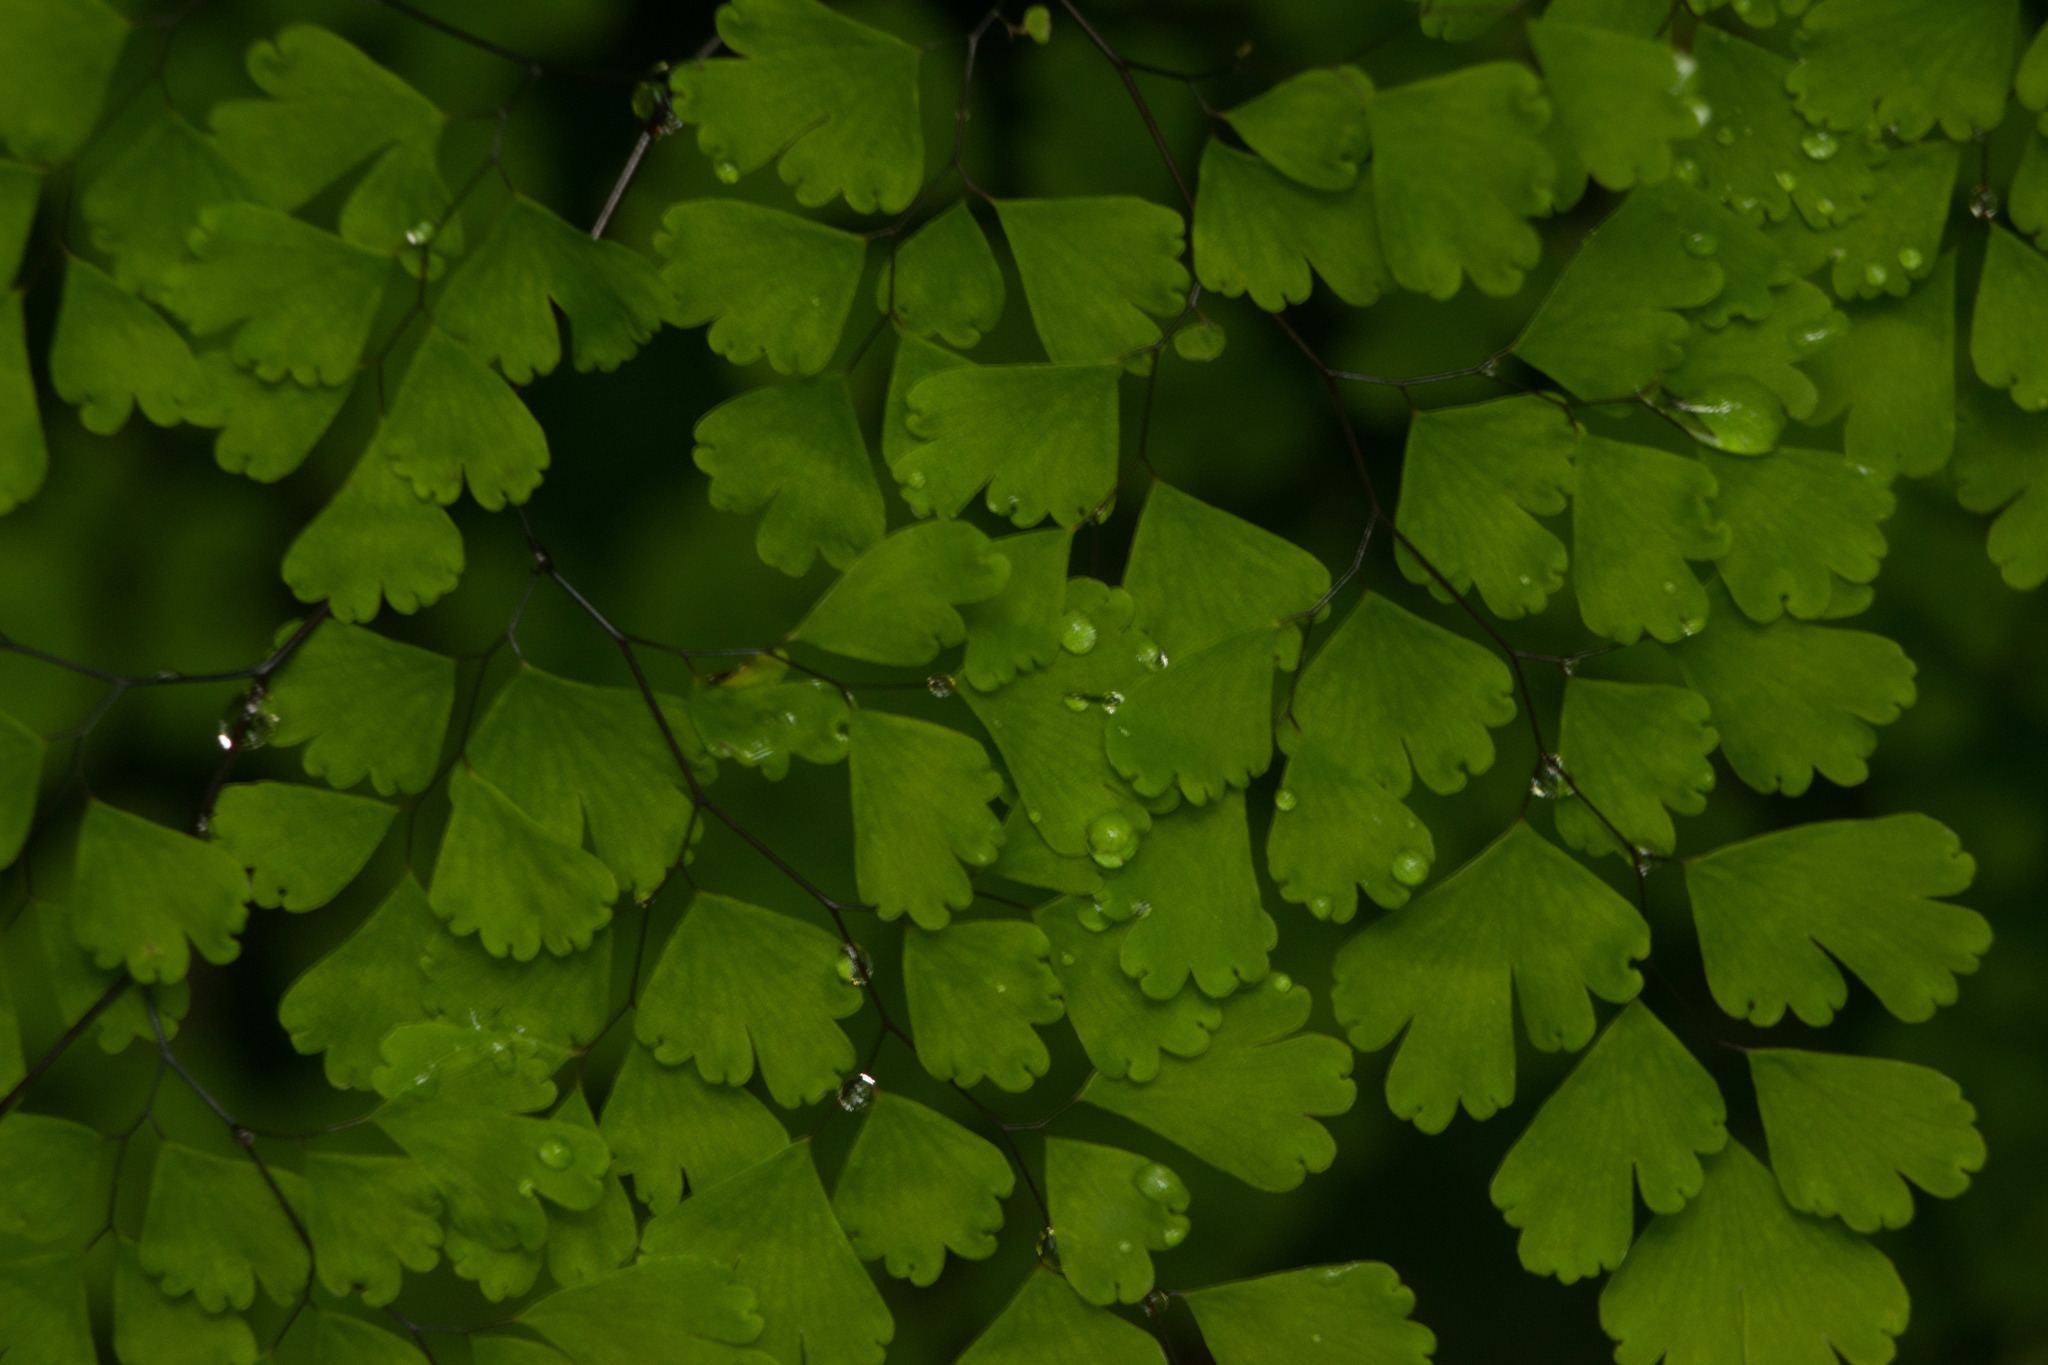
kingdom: Plantae
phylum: Tracheophyta
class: Polypodiopsida
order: Polypodiales
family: Pteridaceae
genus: Adiantum
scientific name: Adiantum raddianum
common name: Delta maidenhair fern
